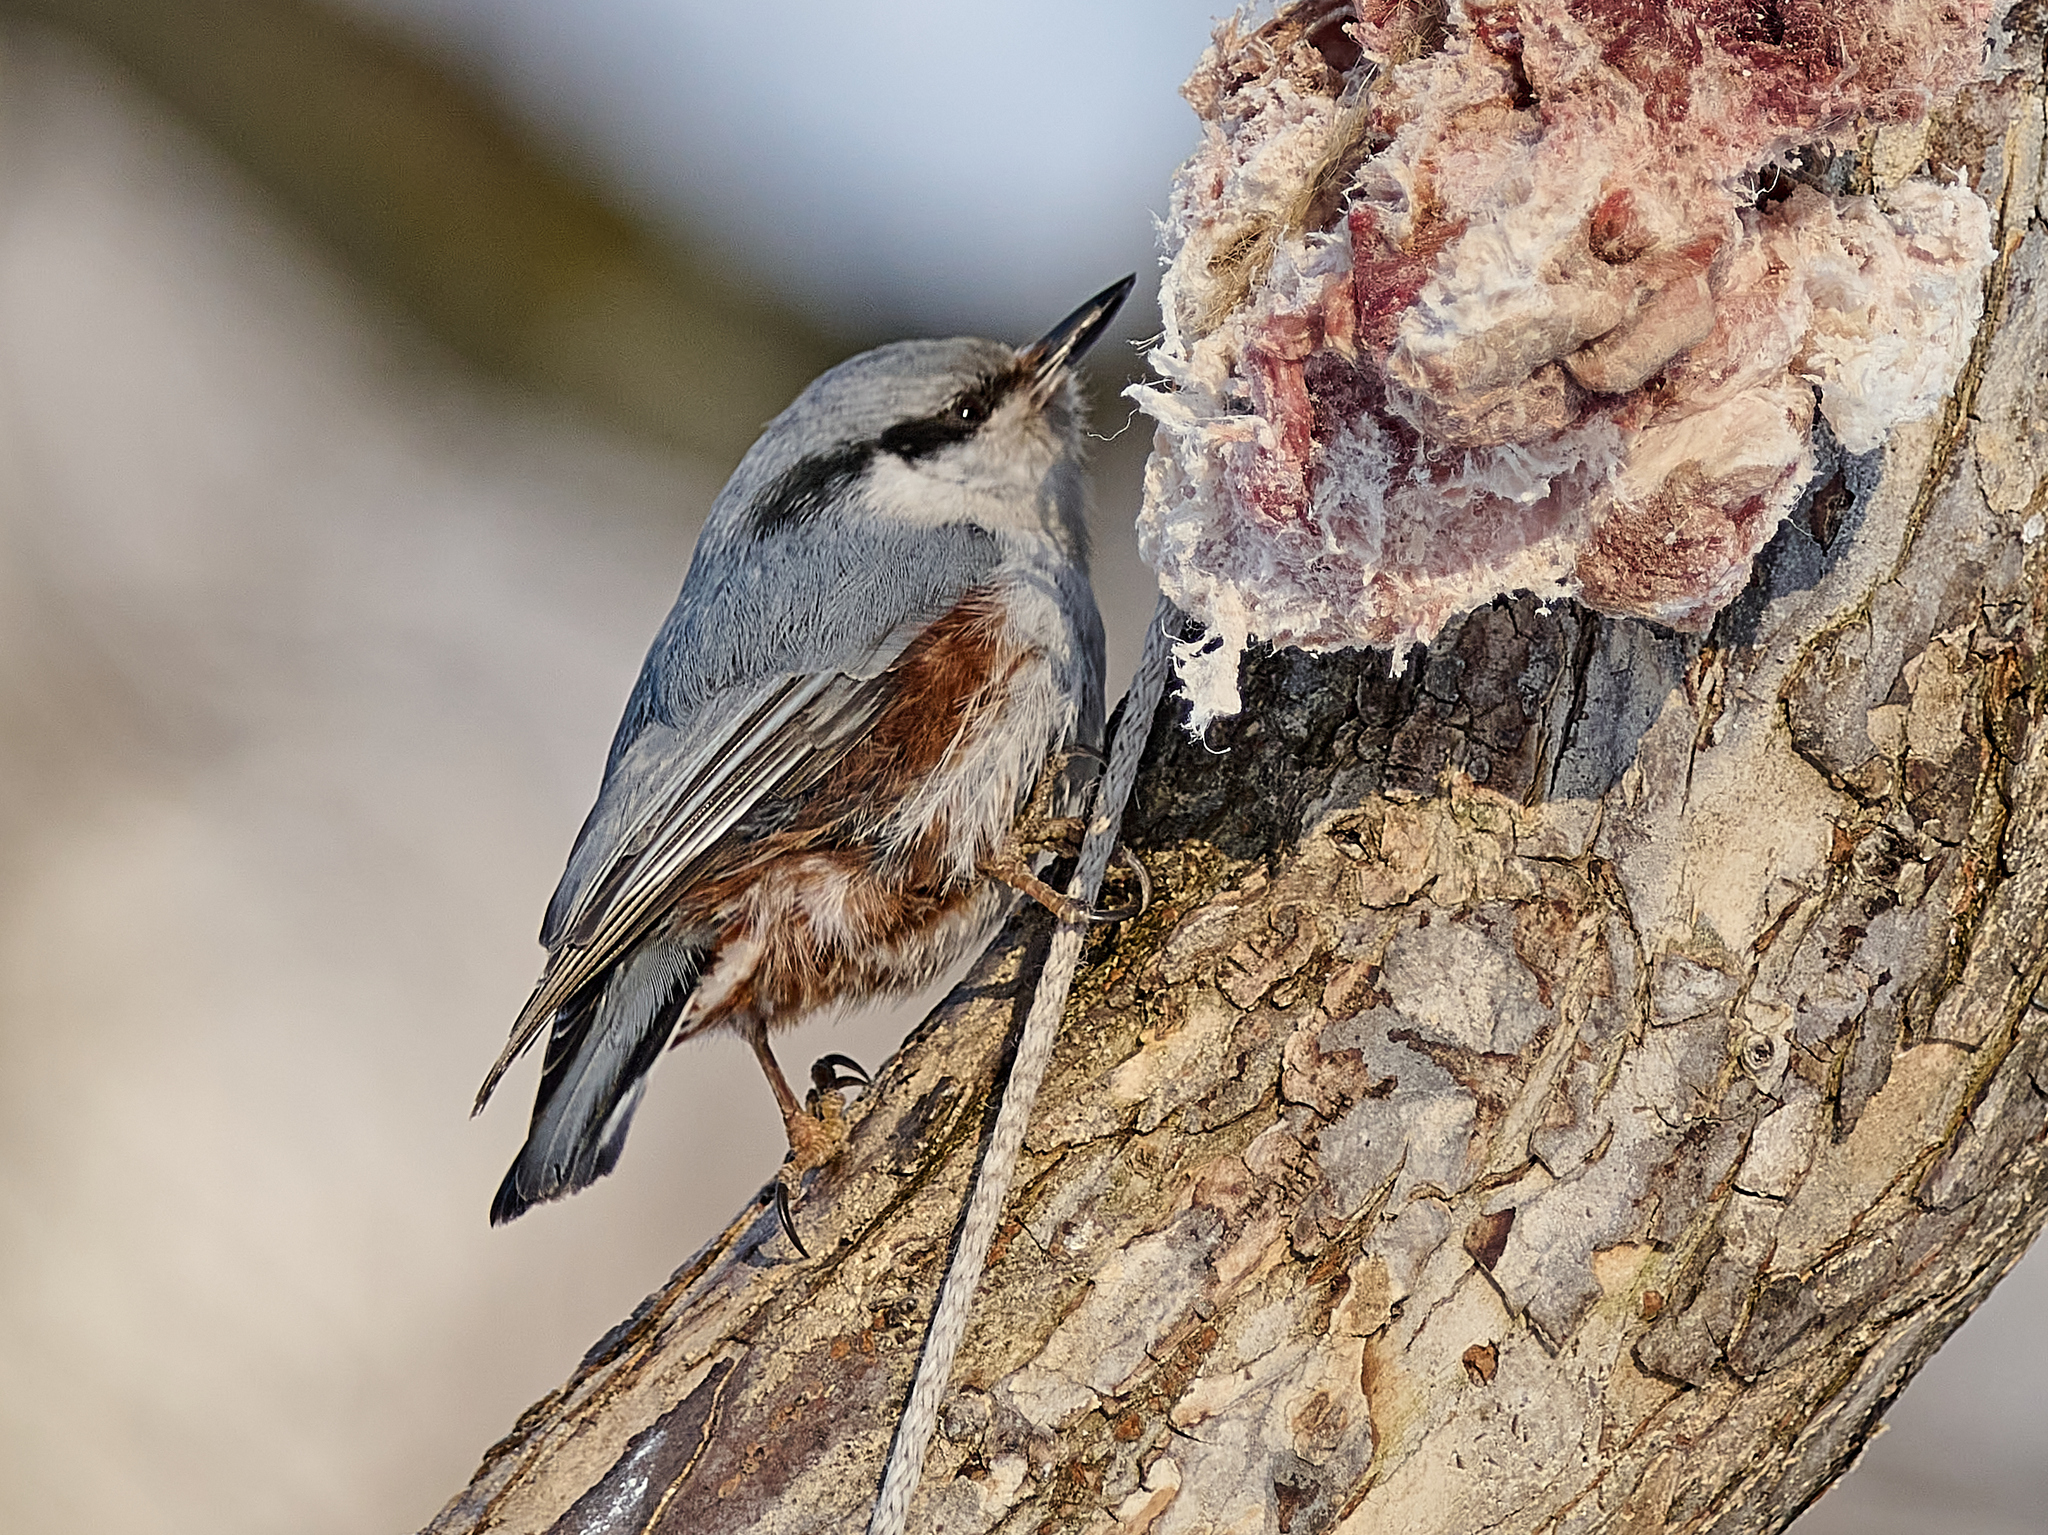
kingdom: Animalia
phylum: Chordata
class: Aves
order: Passeriformes
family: Sittidae
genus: Sitta
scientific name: Sitta europaea
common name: Eurasian nuthatch
